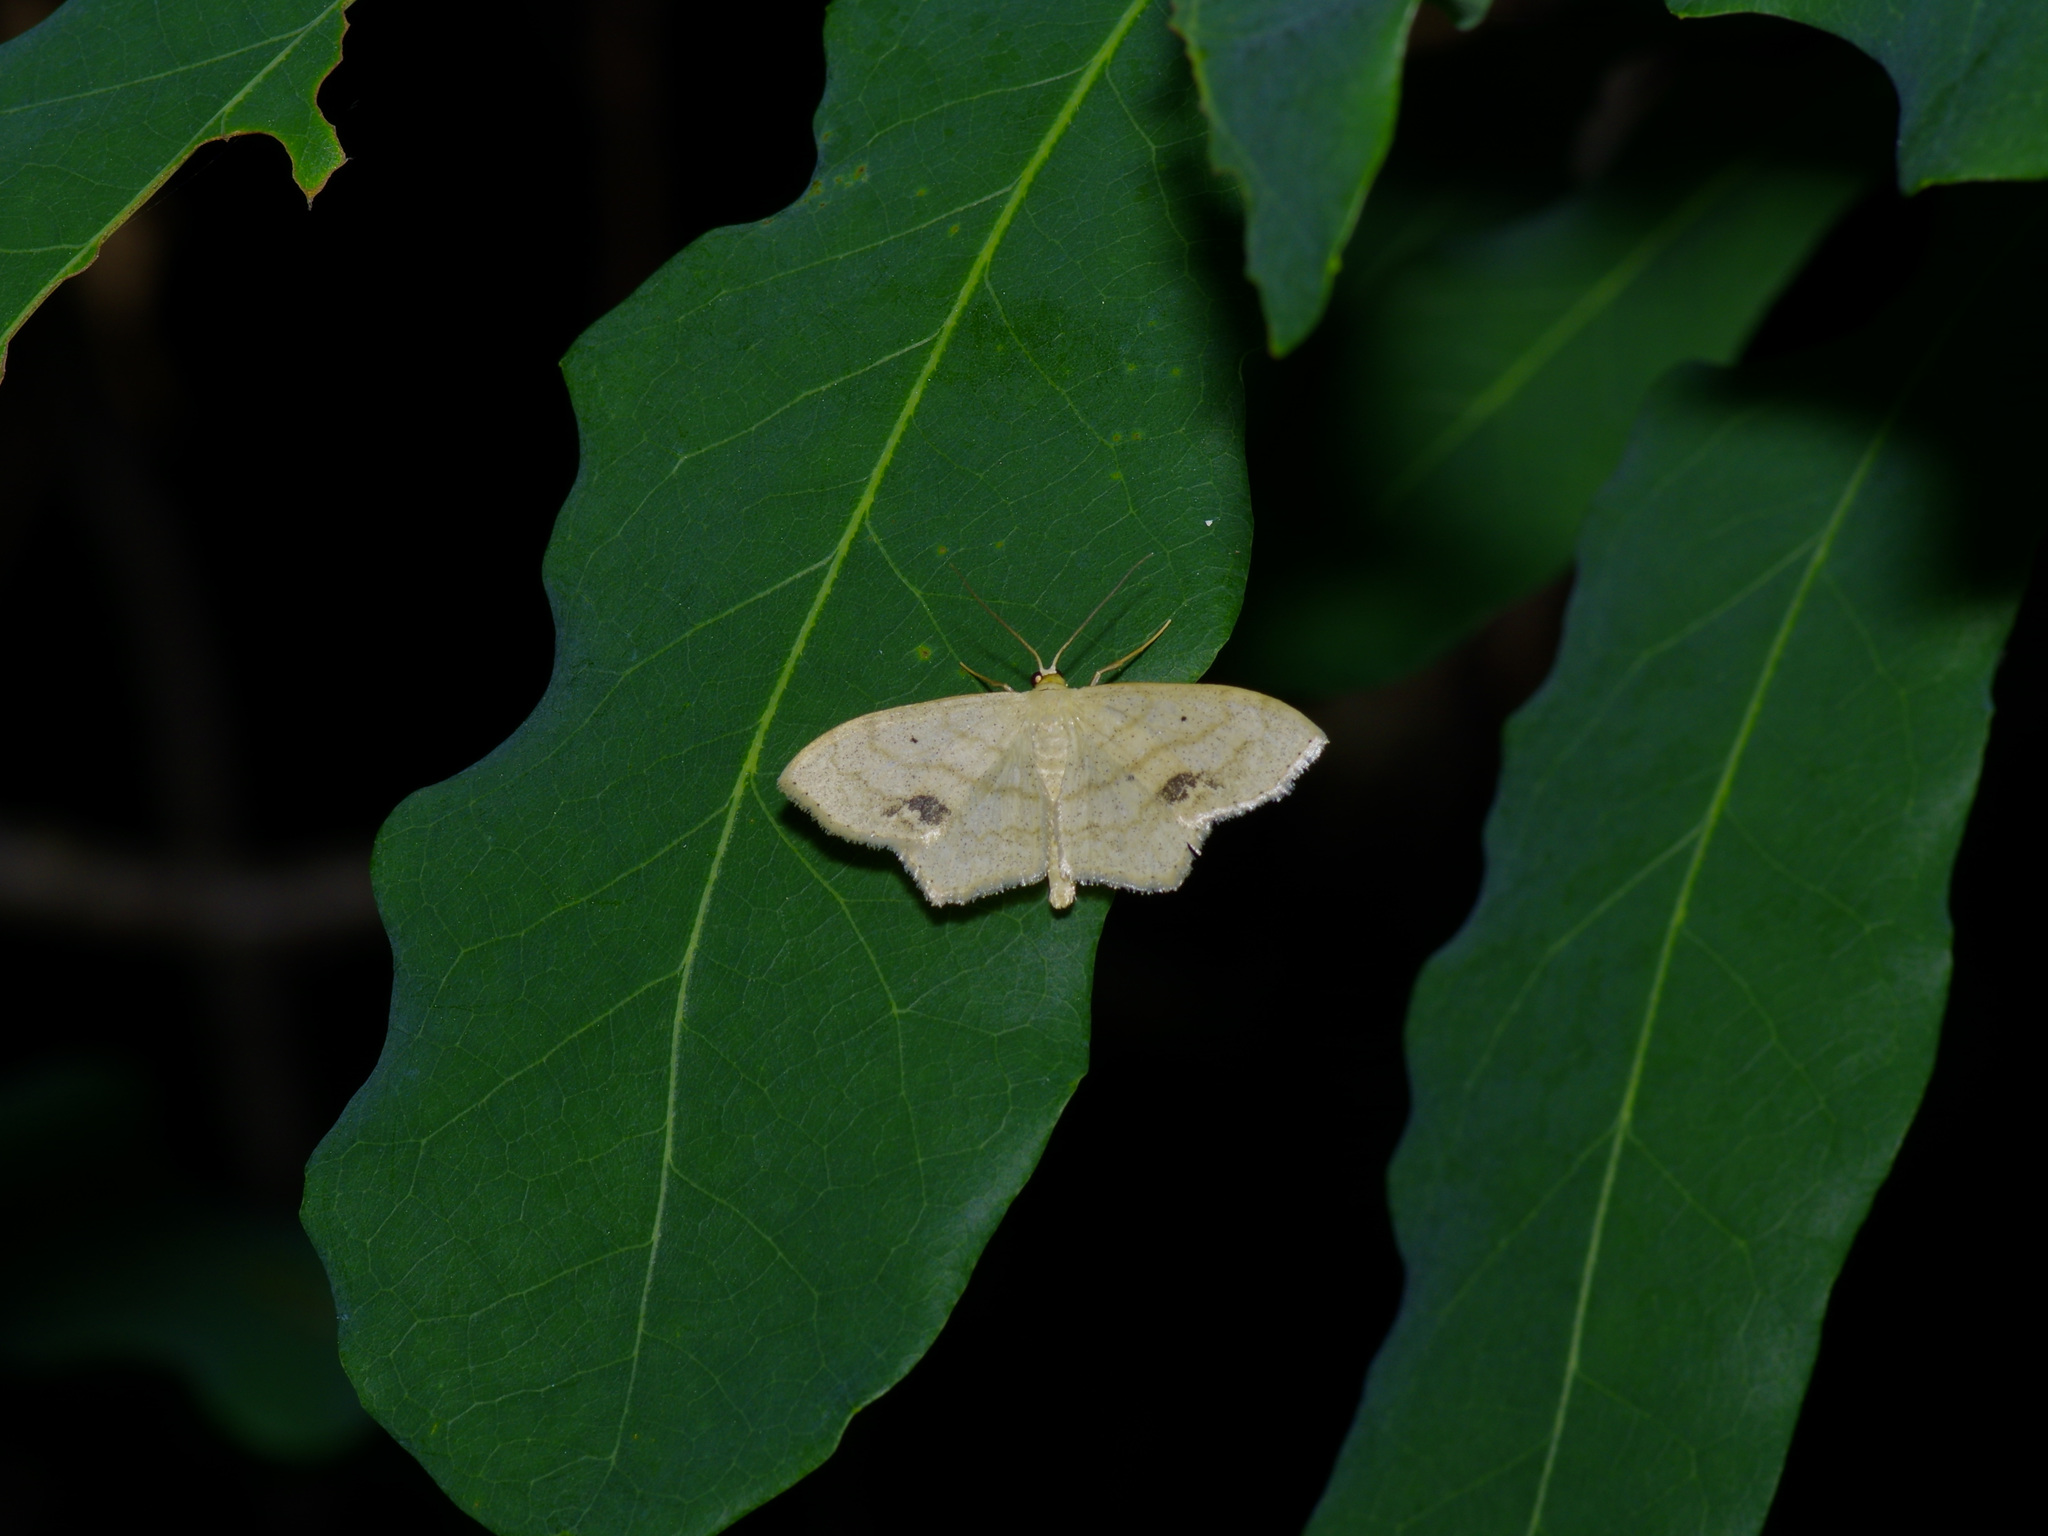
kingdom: Animalia
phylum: Arthropoda
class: Insecta
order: Lepidoptera
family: Geometridae
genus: Scopula
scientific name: Scopula limboundata
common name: Large lace border
